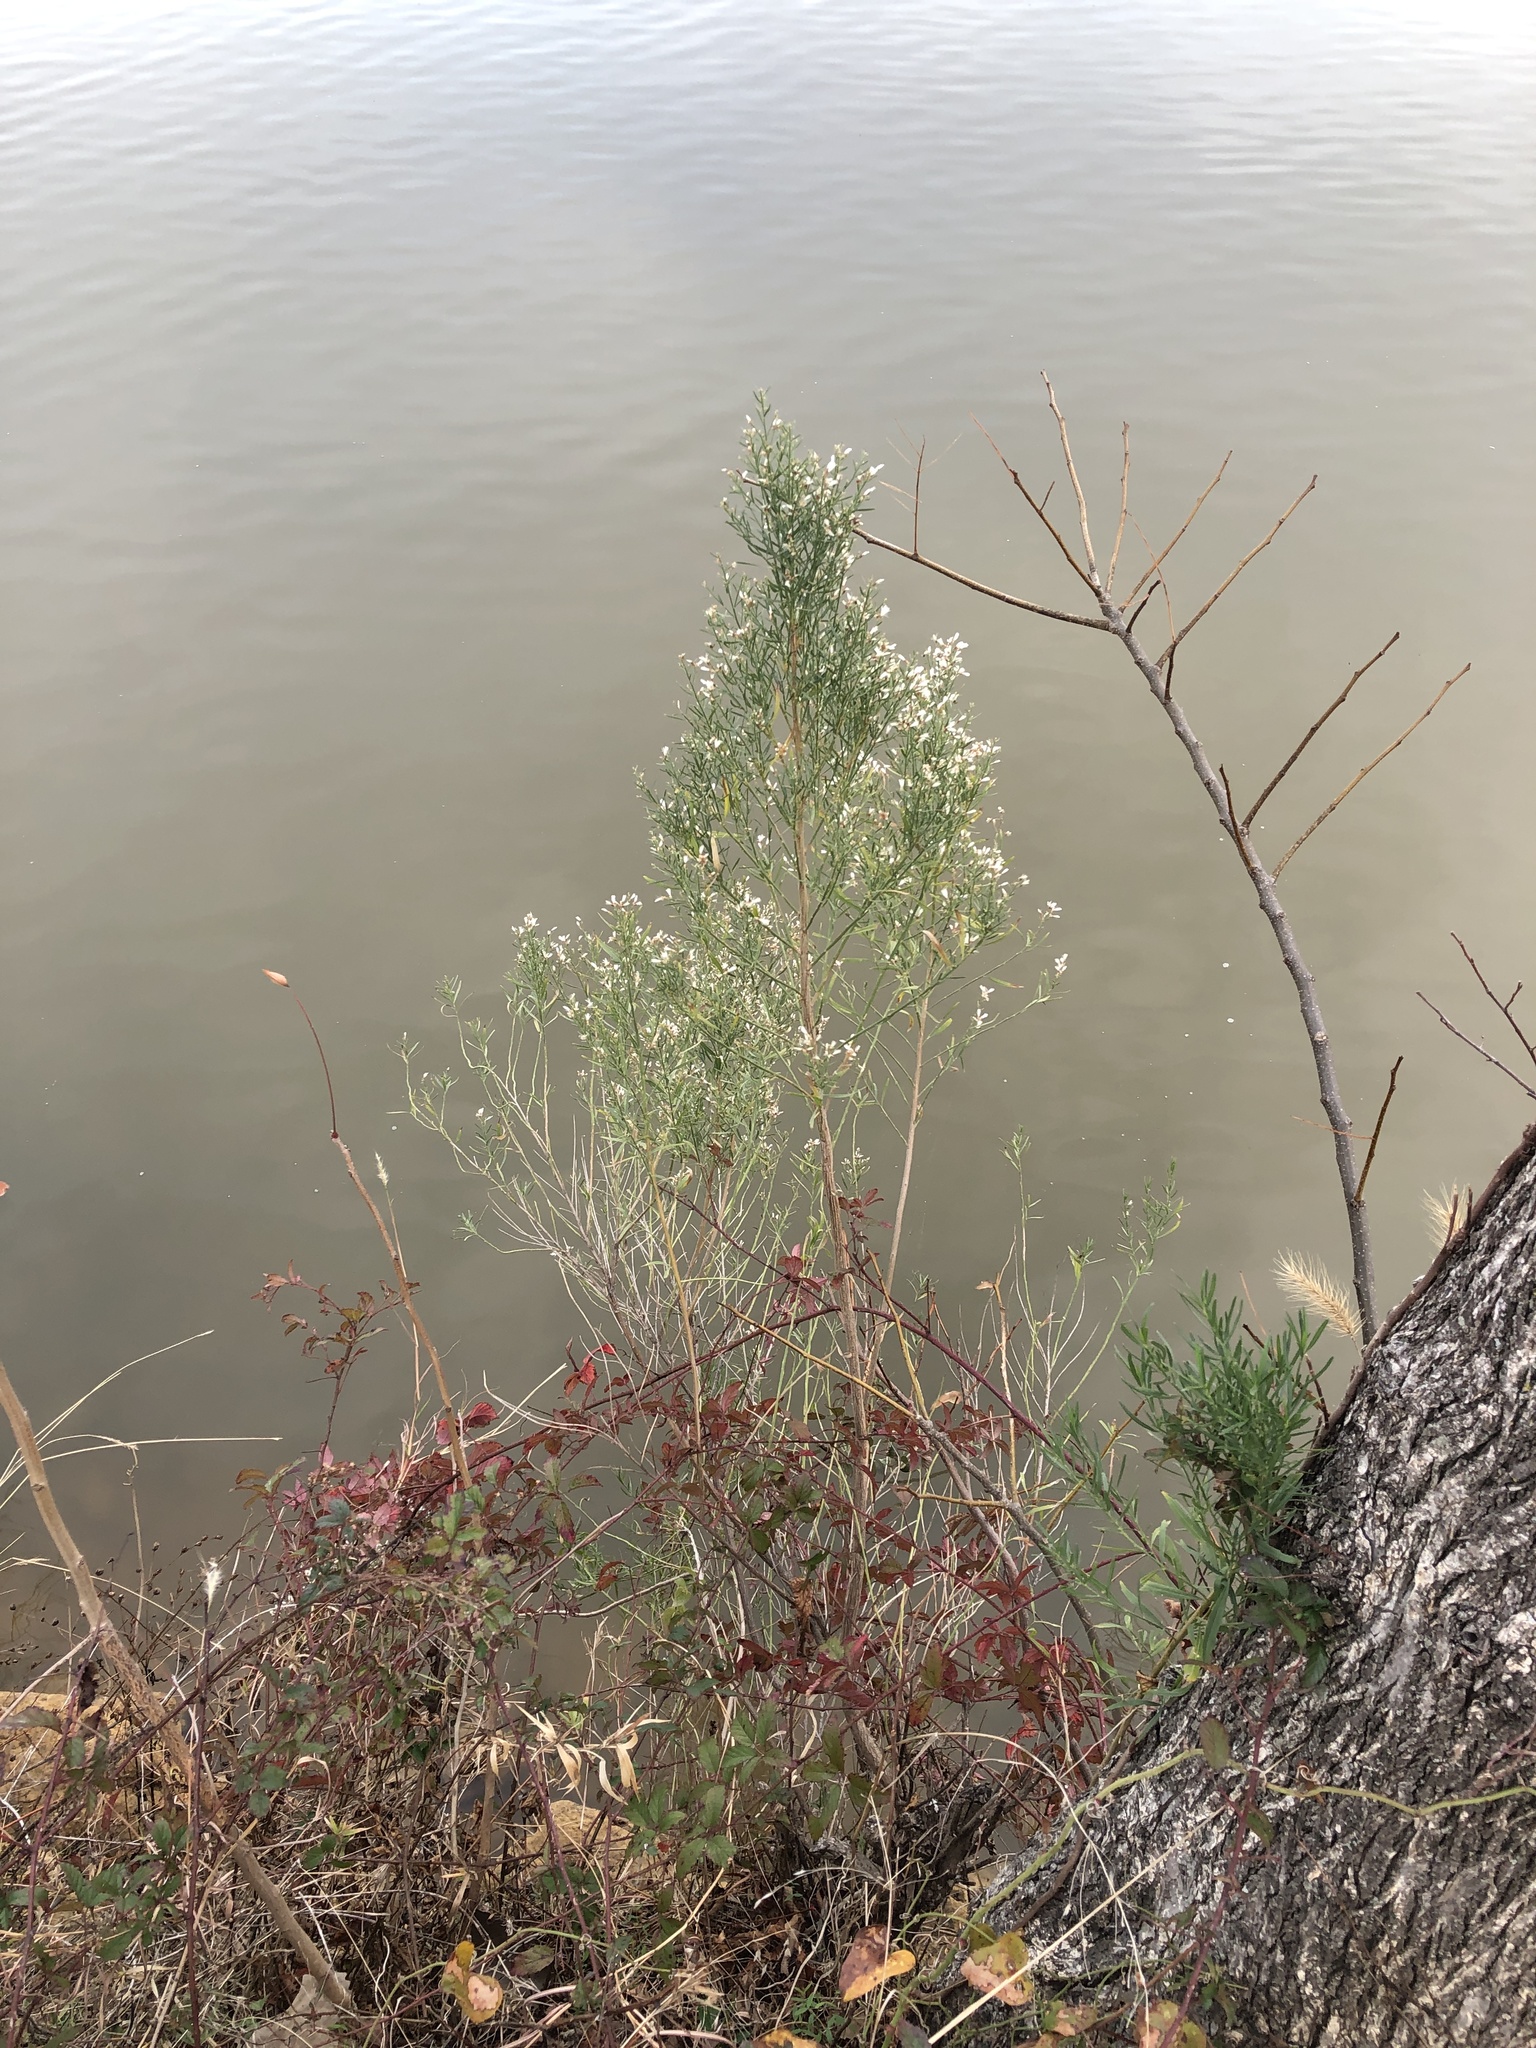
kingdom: Plantae
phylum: Tracheophyta
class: Magnoliopsida
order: Asterales
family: Asteraceae
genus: Baccharis
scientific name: Baccharis neglecta
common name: Roosevelt-weed
